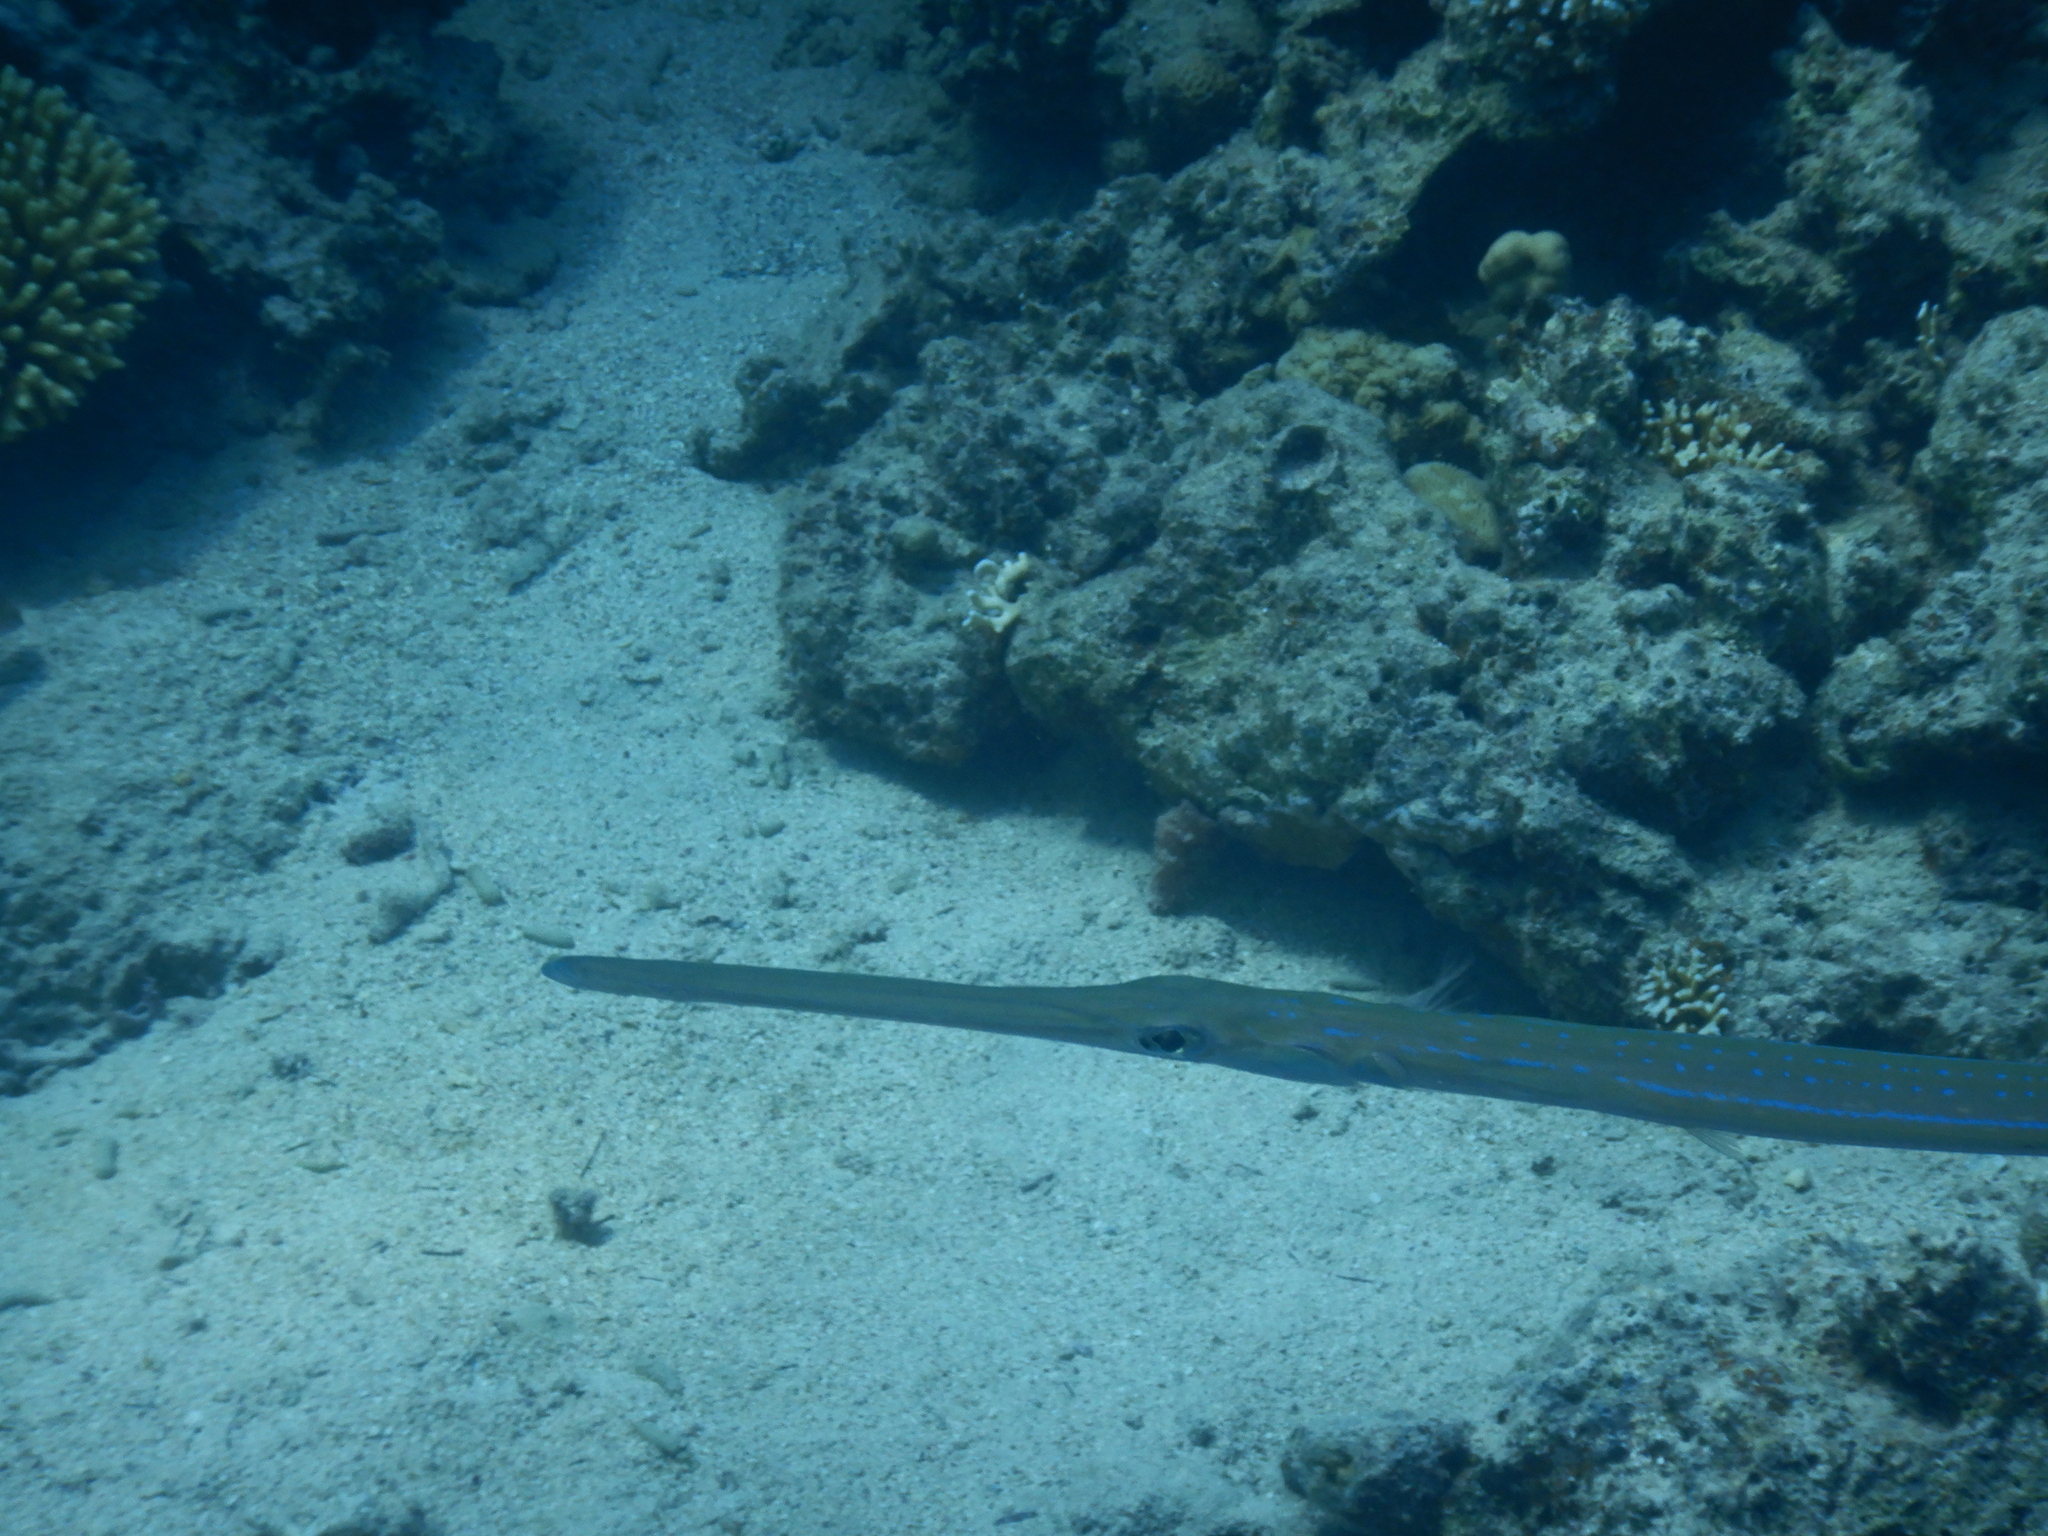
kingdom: Animalia
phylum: Chordata
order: Syngnathiformes
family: Fistulariidae
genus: Fistularia
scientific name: Fistularia commersonii
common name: Bluespotted cornetfish
